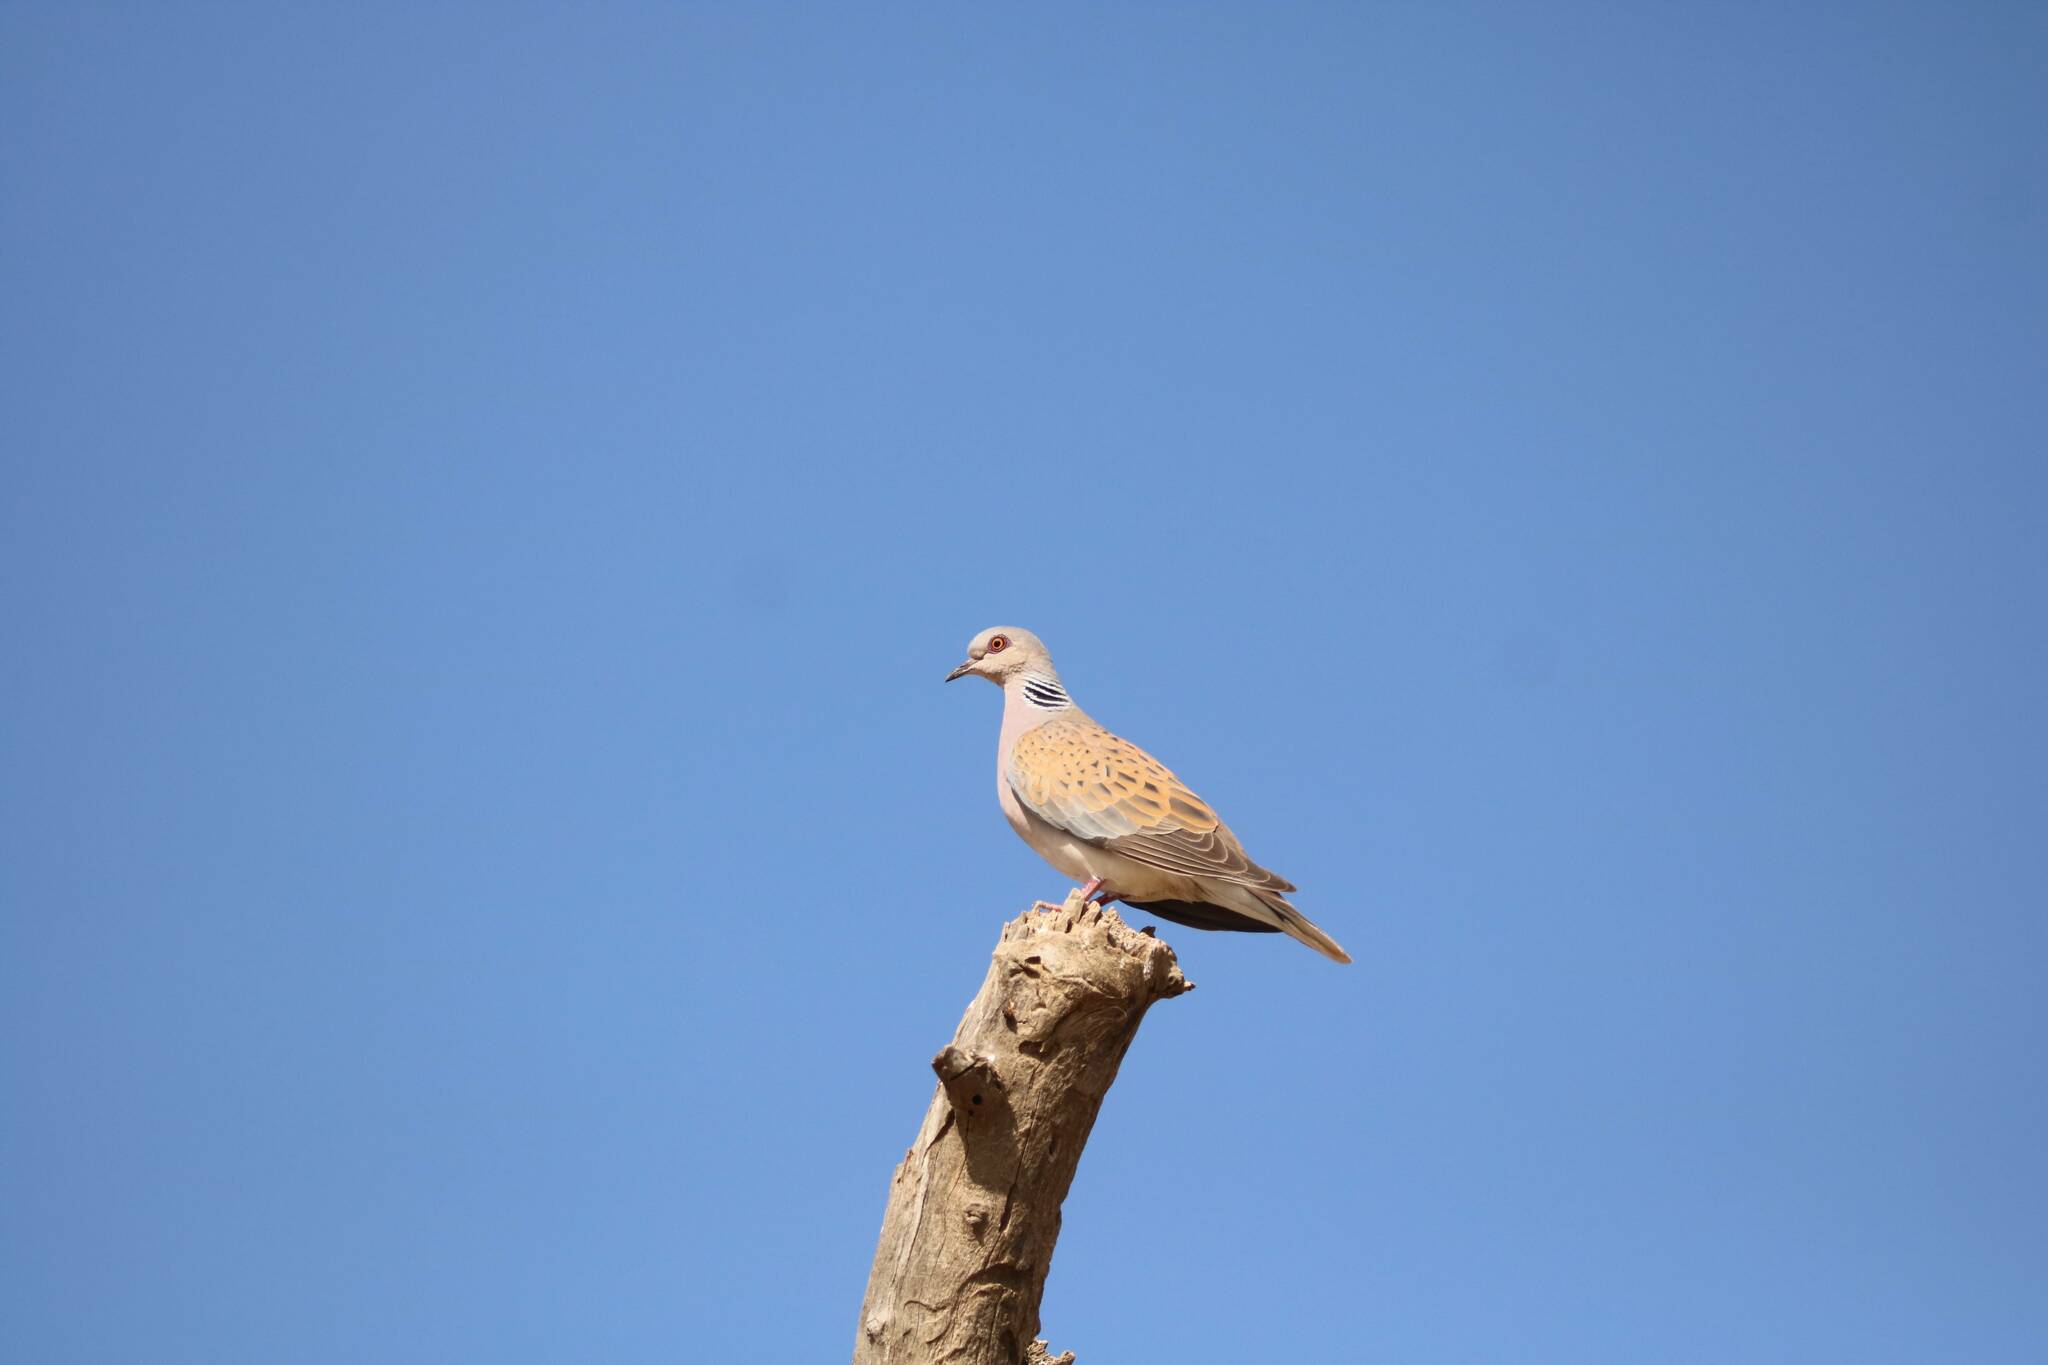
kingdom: Animalia
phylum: Chordata
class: Aves
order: Columbiformes
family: Columbidae
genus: Streptopelia
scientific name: Streptopelia turtur
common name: European turtle dove
